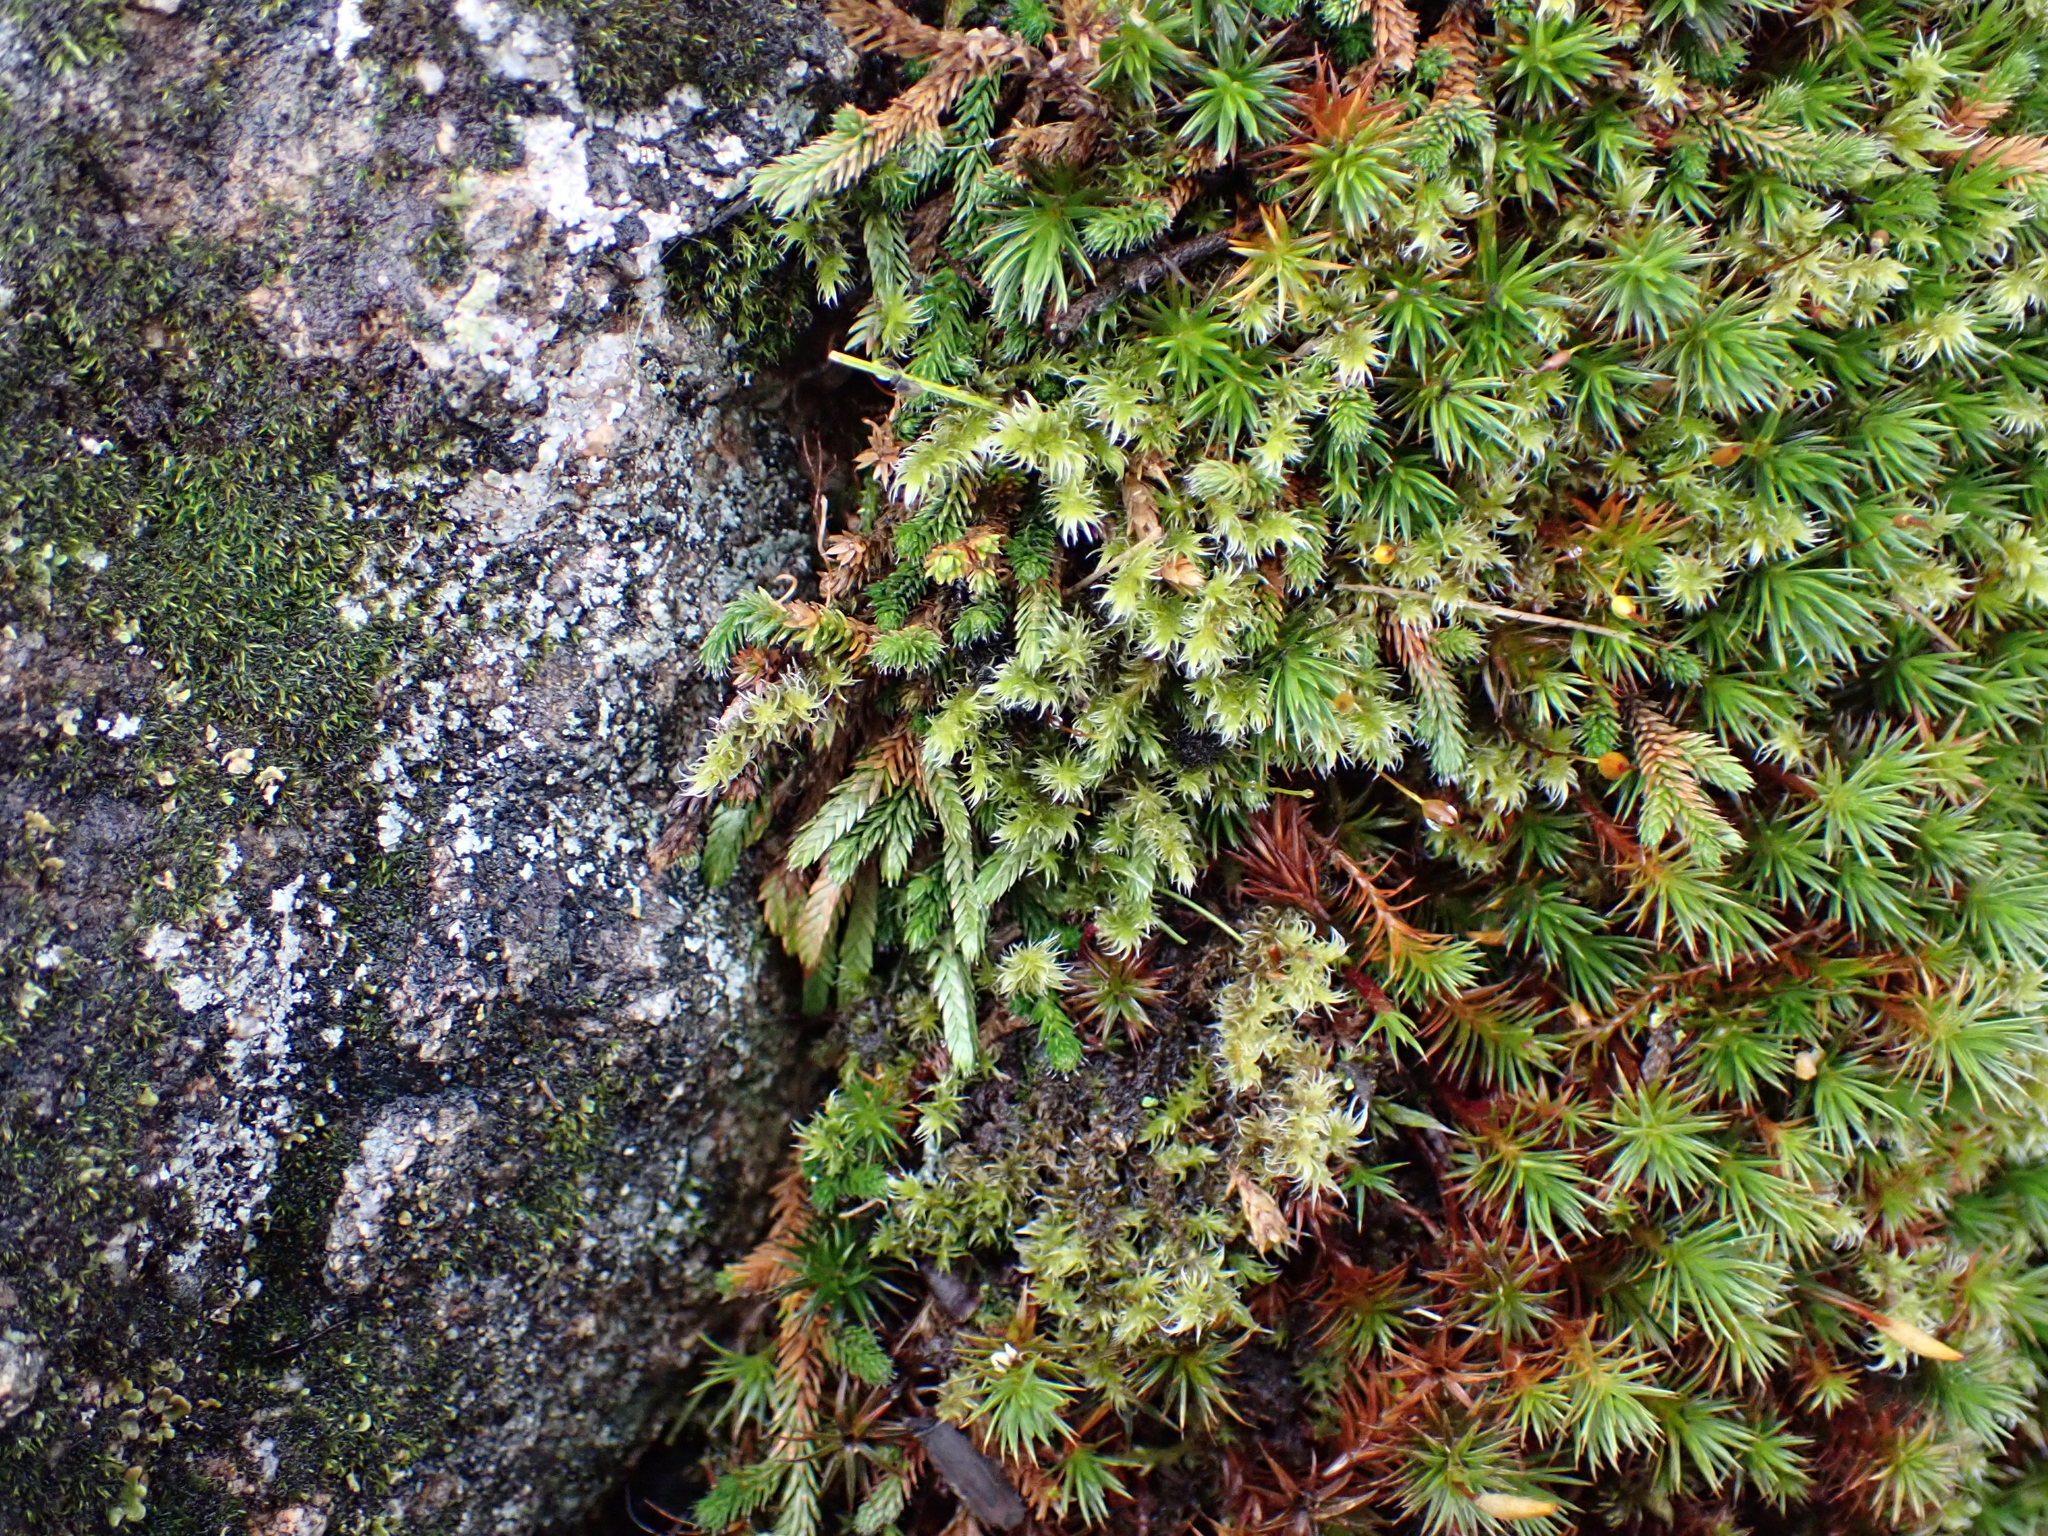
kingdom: Plantae
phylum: Tracheophyta
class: Lycopodiopsida
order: Selaginellales
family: Selaginellaceae
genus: Selaginella
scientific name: Selaginella wallacei
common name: Wallace's selaginella
